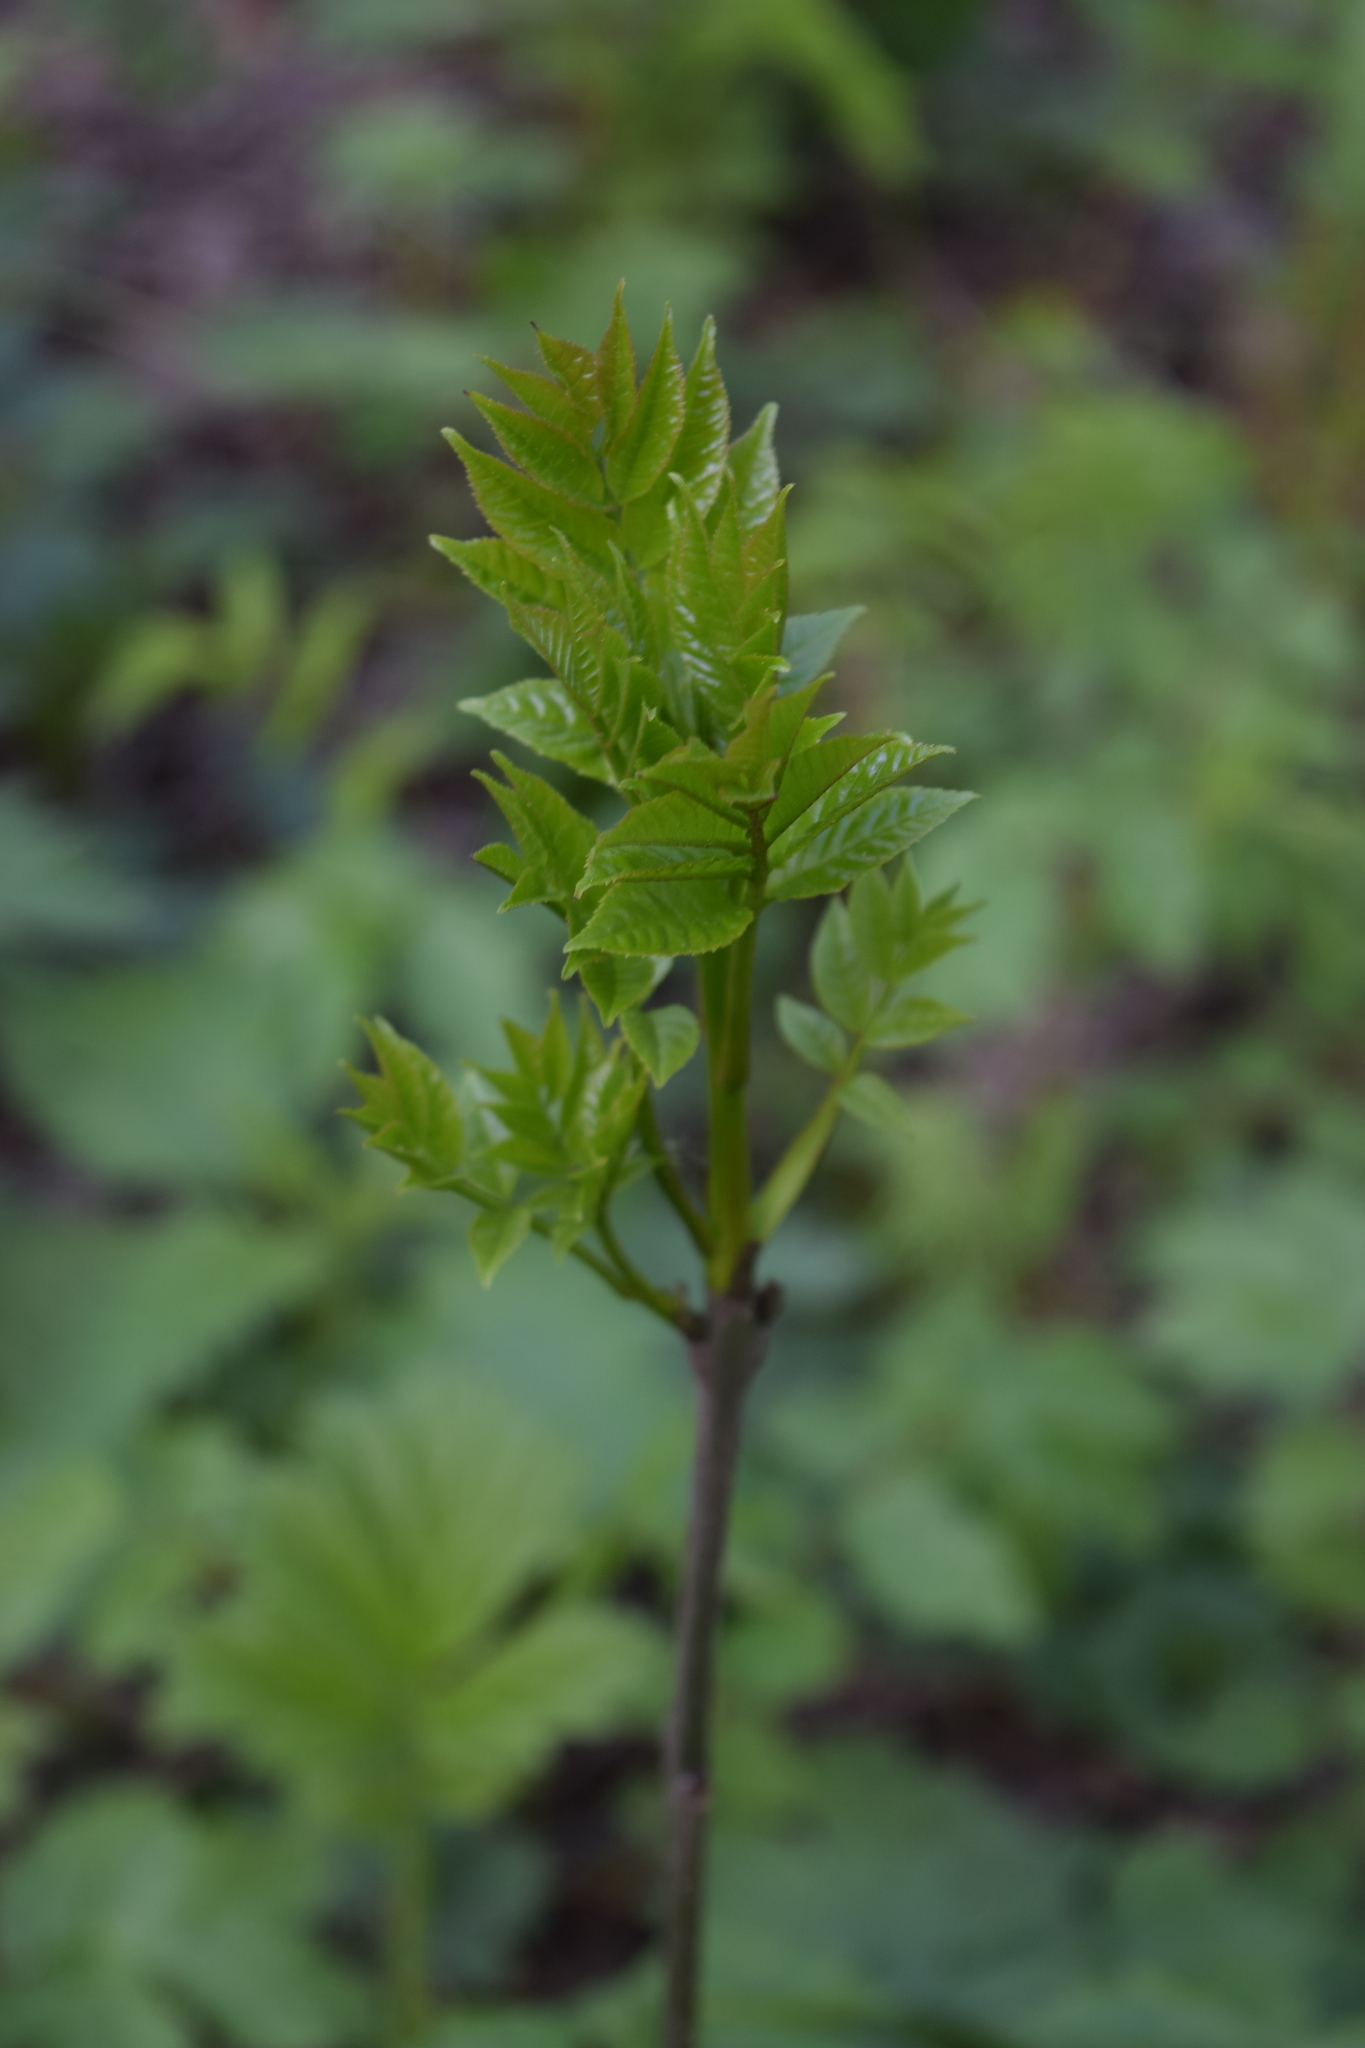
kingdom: Plantae
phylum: Tracheophyta
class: Magnoliopsida
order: Lamiales
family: Oleaceae
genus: Fraxinus
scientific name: Fraxinus excelsior
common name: European ash
